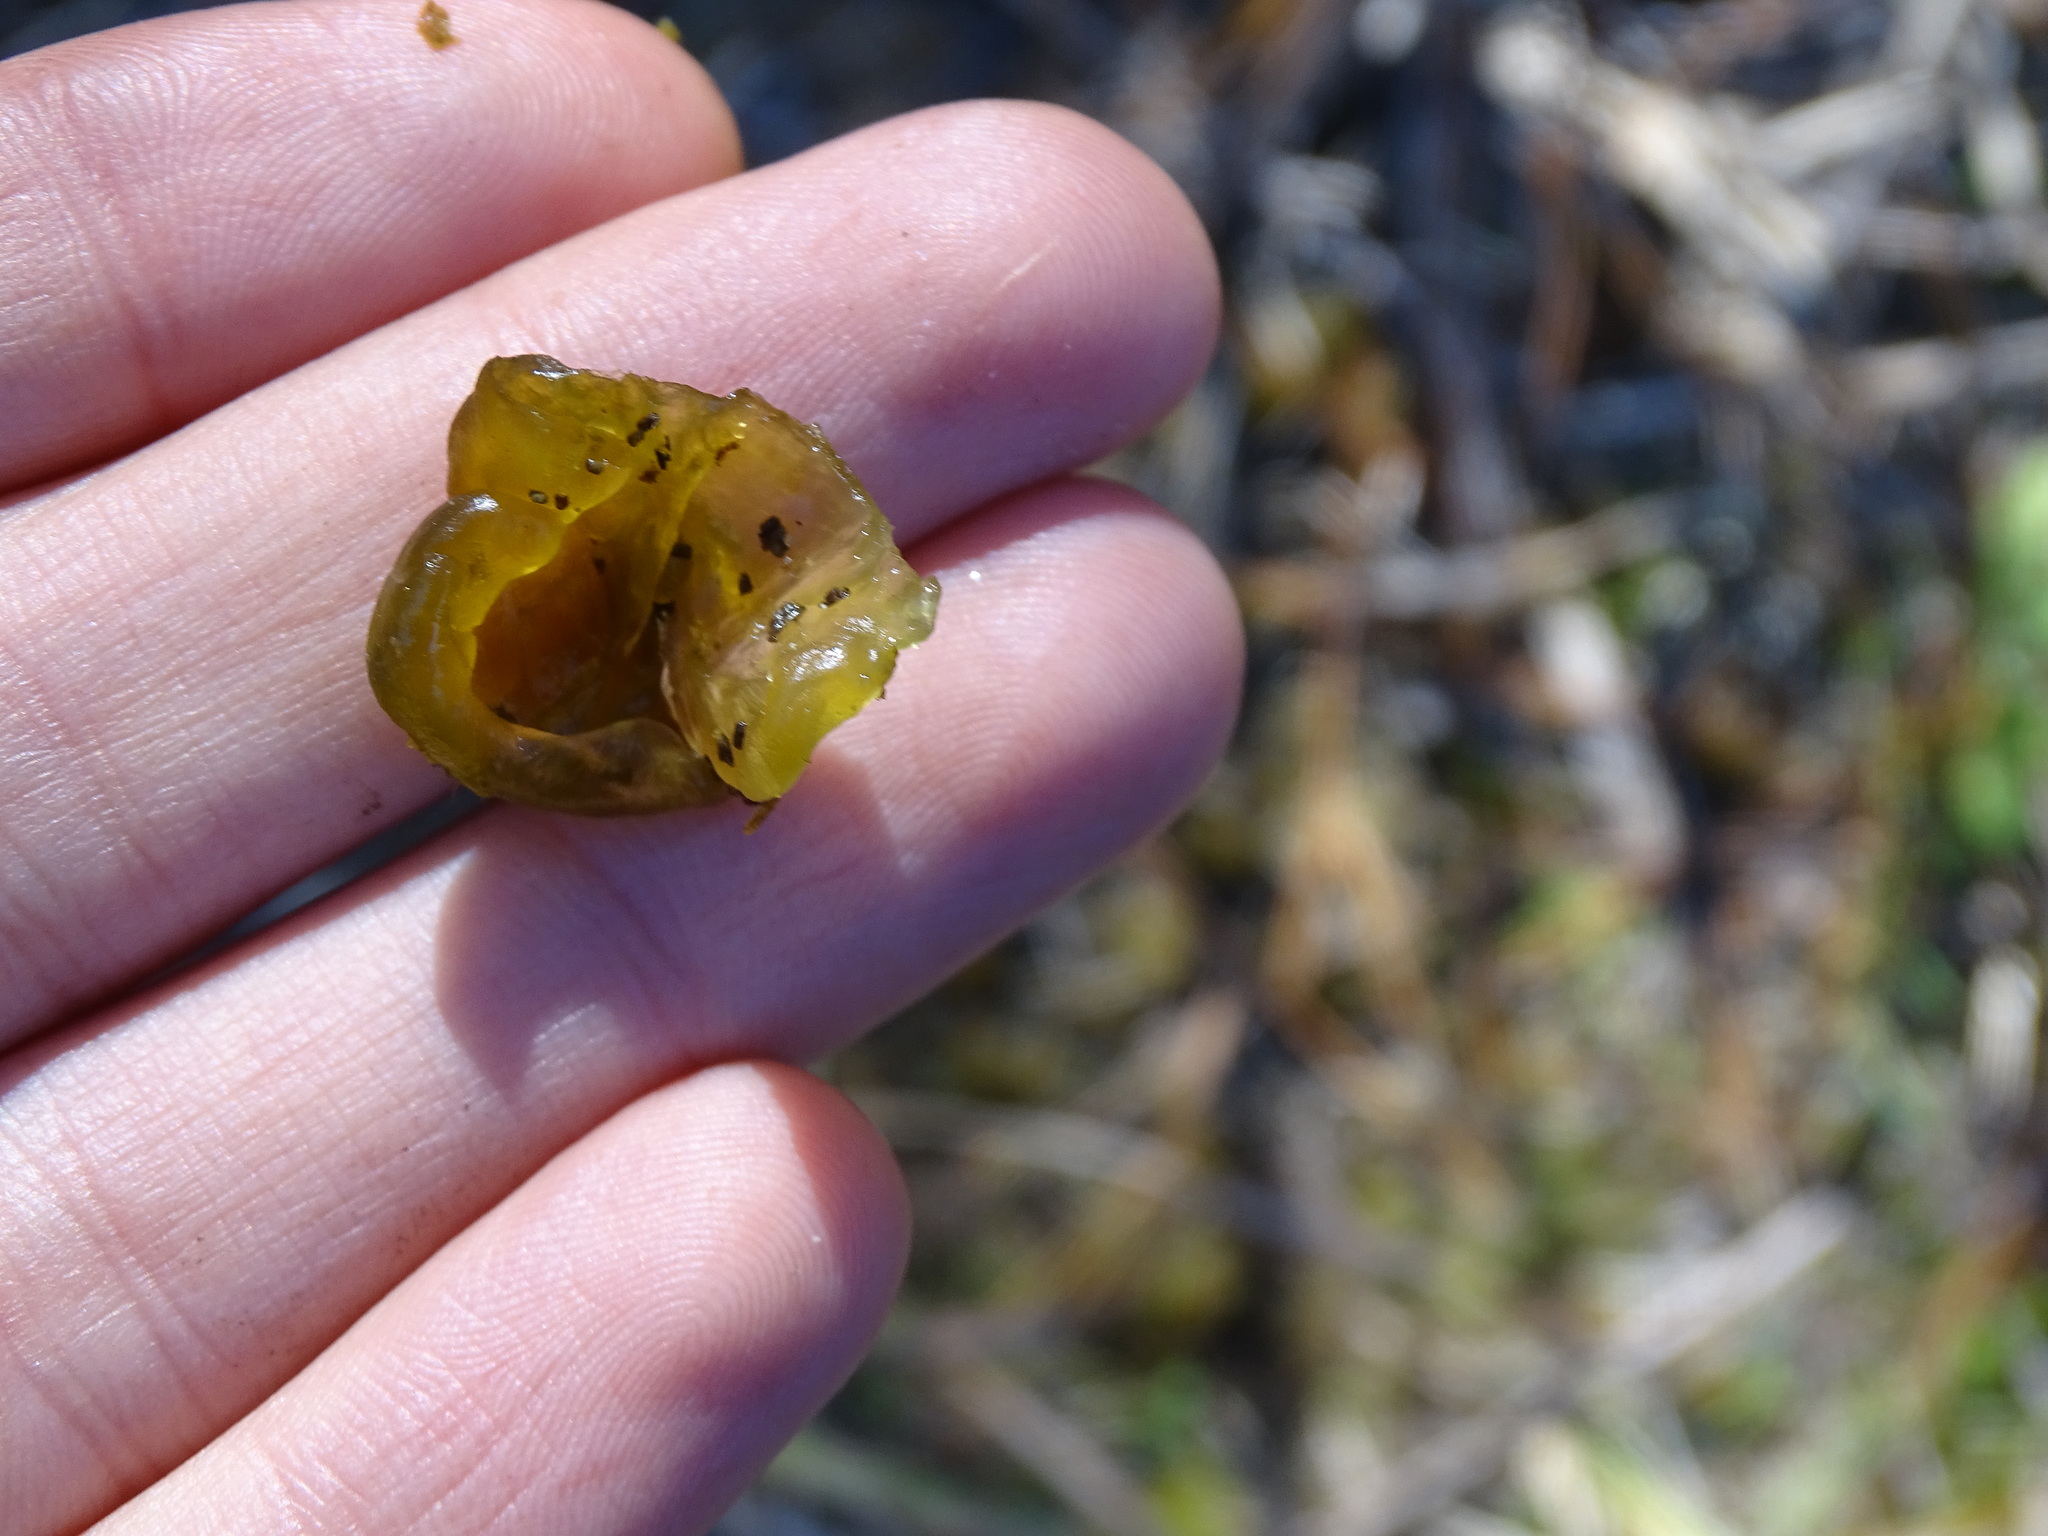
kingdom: Bacteria
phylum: Cyanobacteria
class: Cyanobacteriia
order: Cyanobacteriales
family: Nostocaceae
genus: Nostoc
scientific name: Nostoc commune
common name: Star jelly
